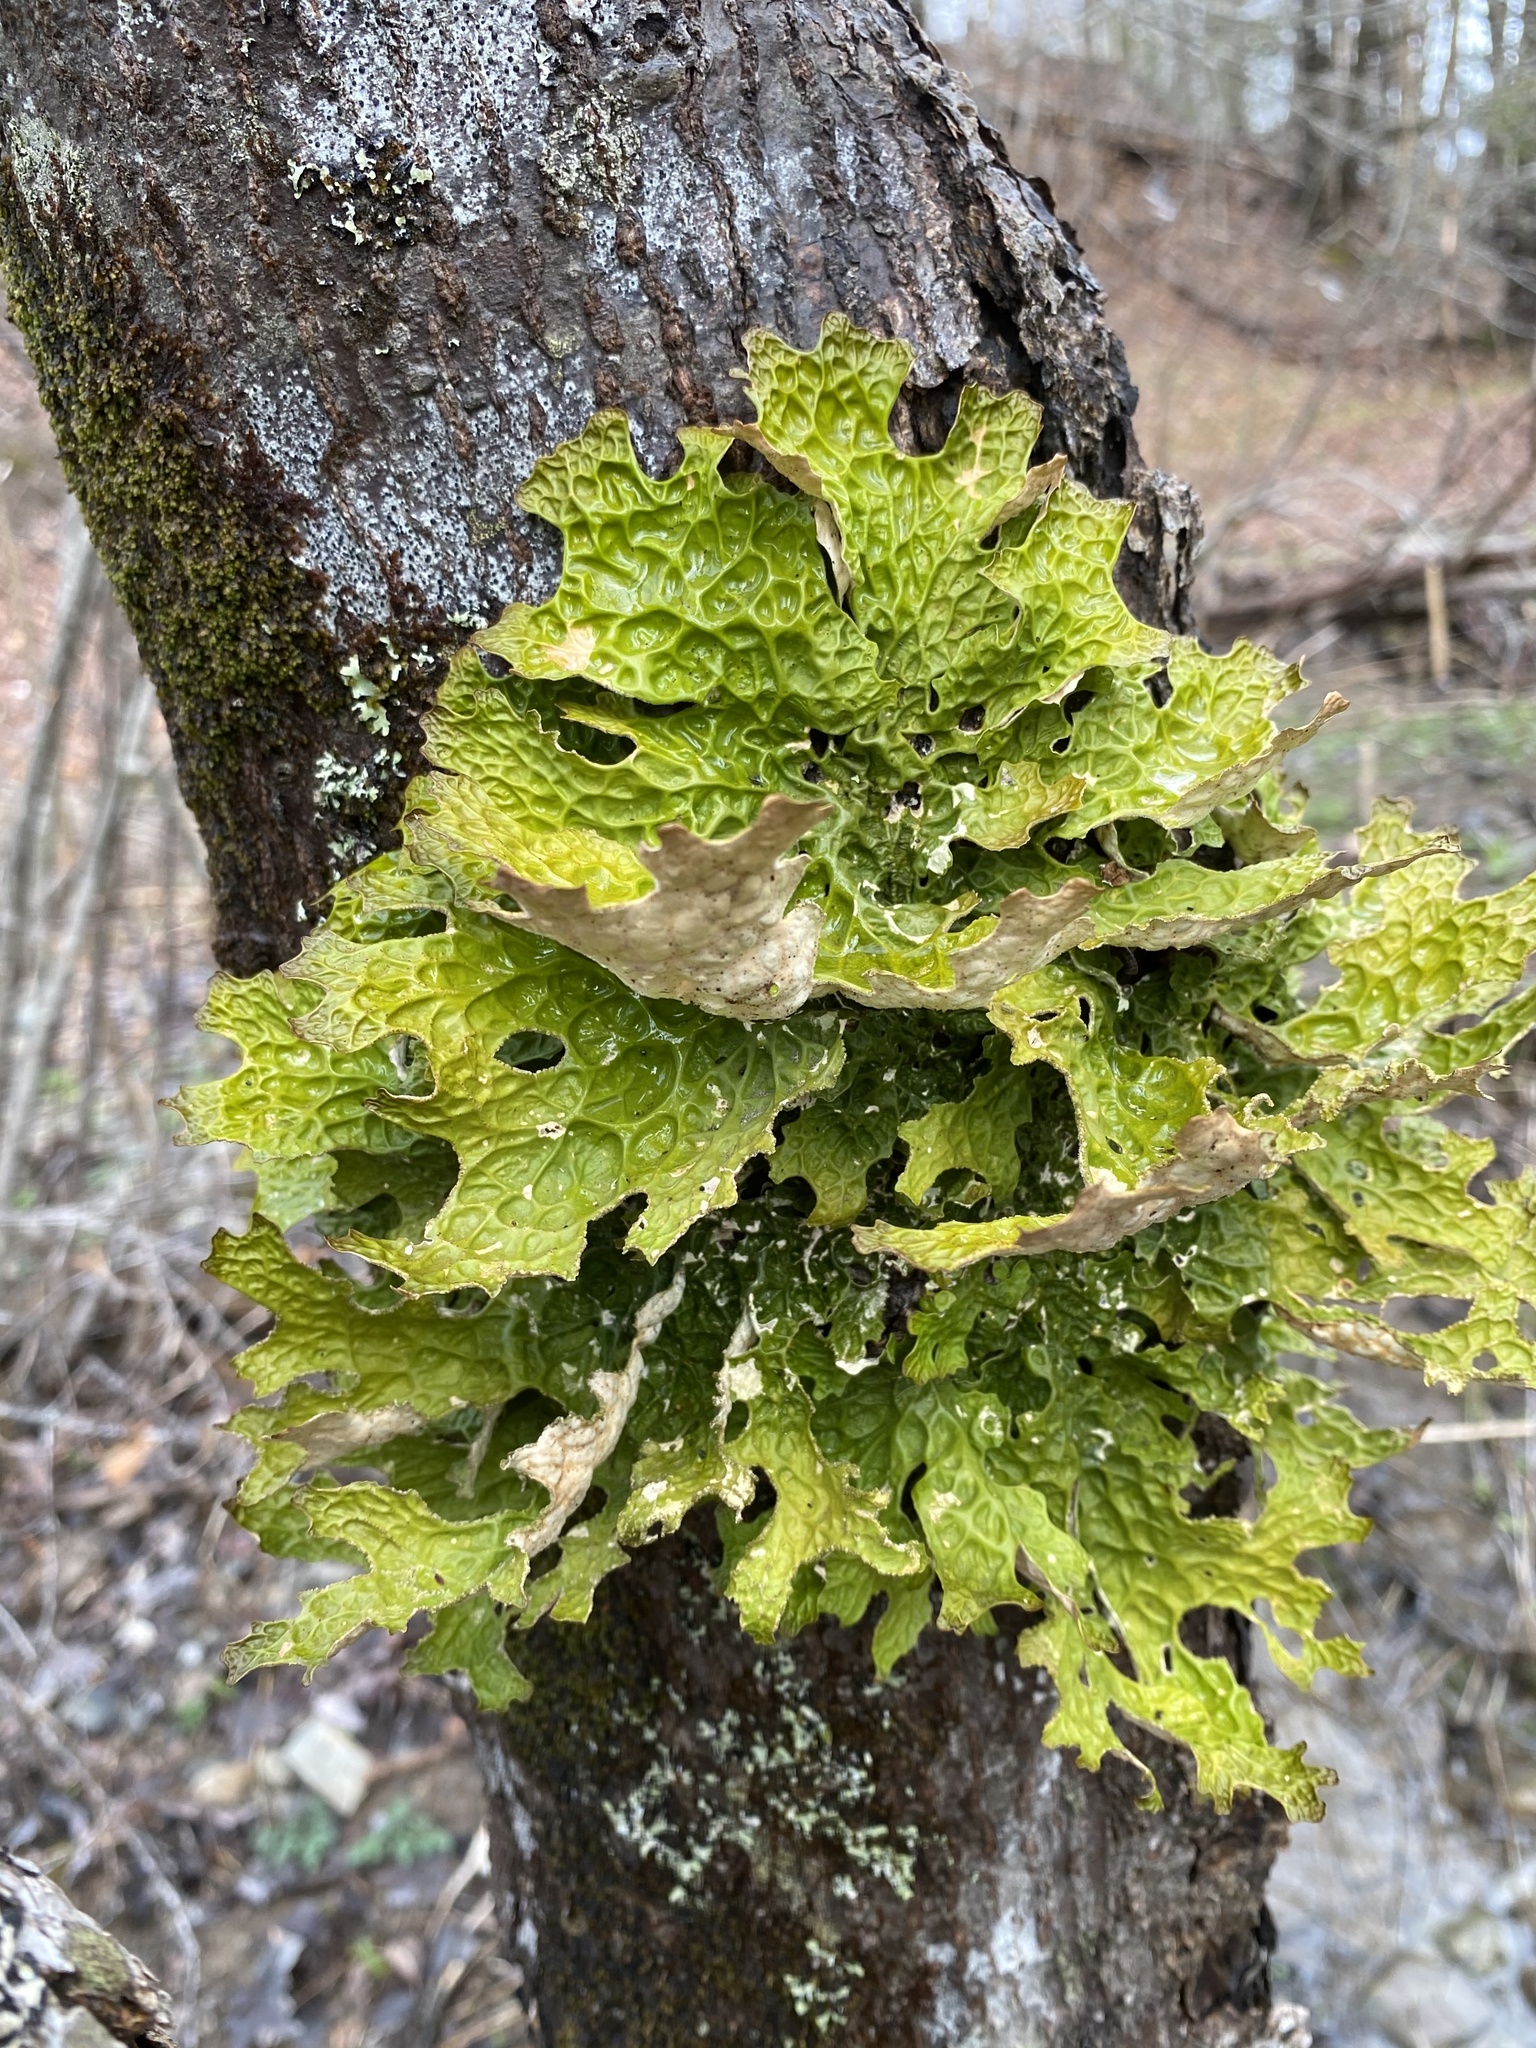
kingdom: Fungi
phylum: Ascomycota
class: Lecanoromycetes
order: Peltigerales
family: Lobariaceae
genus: Lobaria
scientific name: Lobaria pulmonaria
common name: Lungwort
